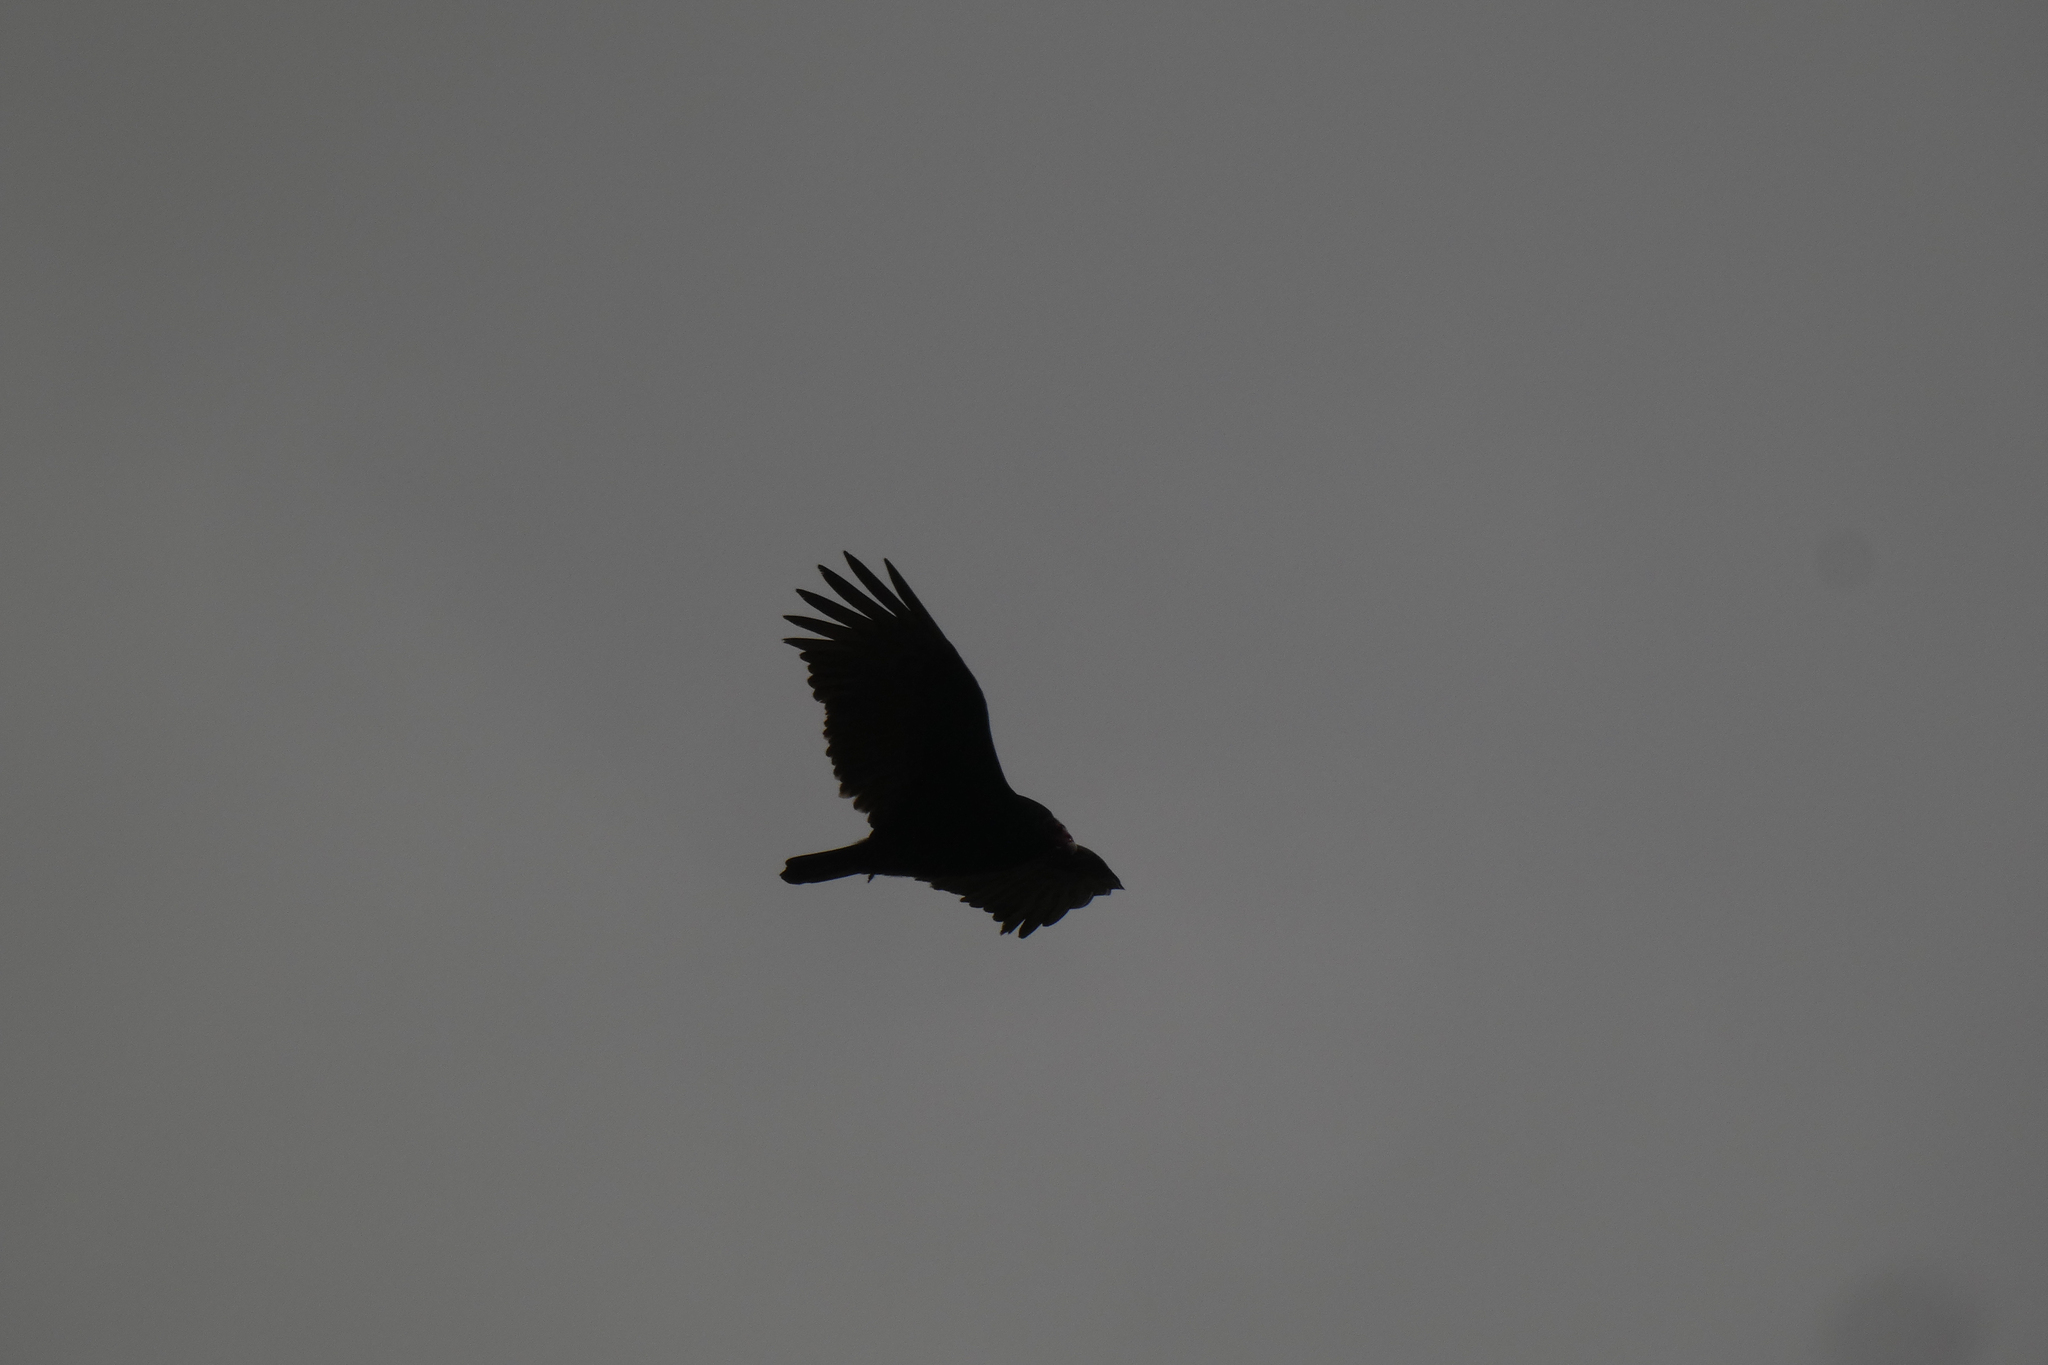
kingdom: Animalia
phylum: Chordata
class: Aves
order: Accipitriformes
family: Cathartidae
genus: Cathartes
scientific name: Cathartes aura
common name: Turkey vulture
